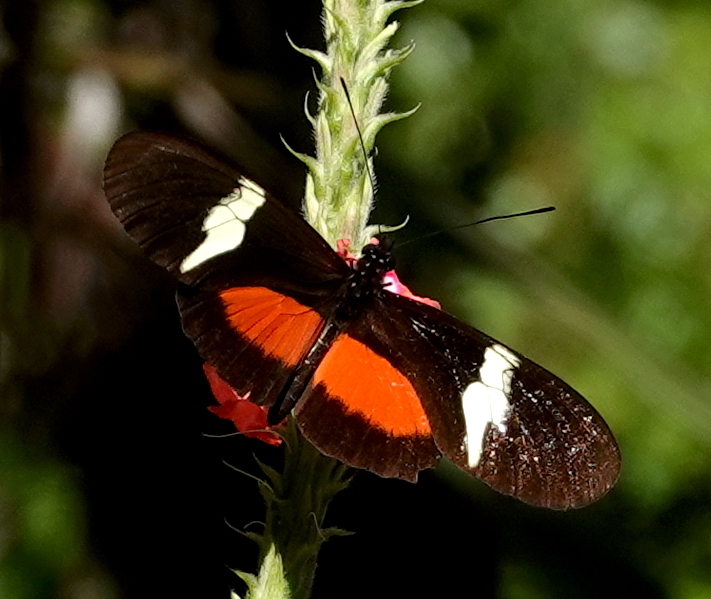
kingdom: Animalia
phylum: Arthropoda
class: Insecta
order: Lepidoptera
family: Nymphalidae
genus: Heliconius
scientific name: Heliconius clysonymus
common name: Clysonymus longwing
